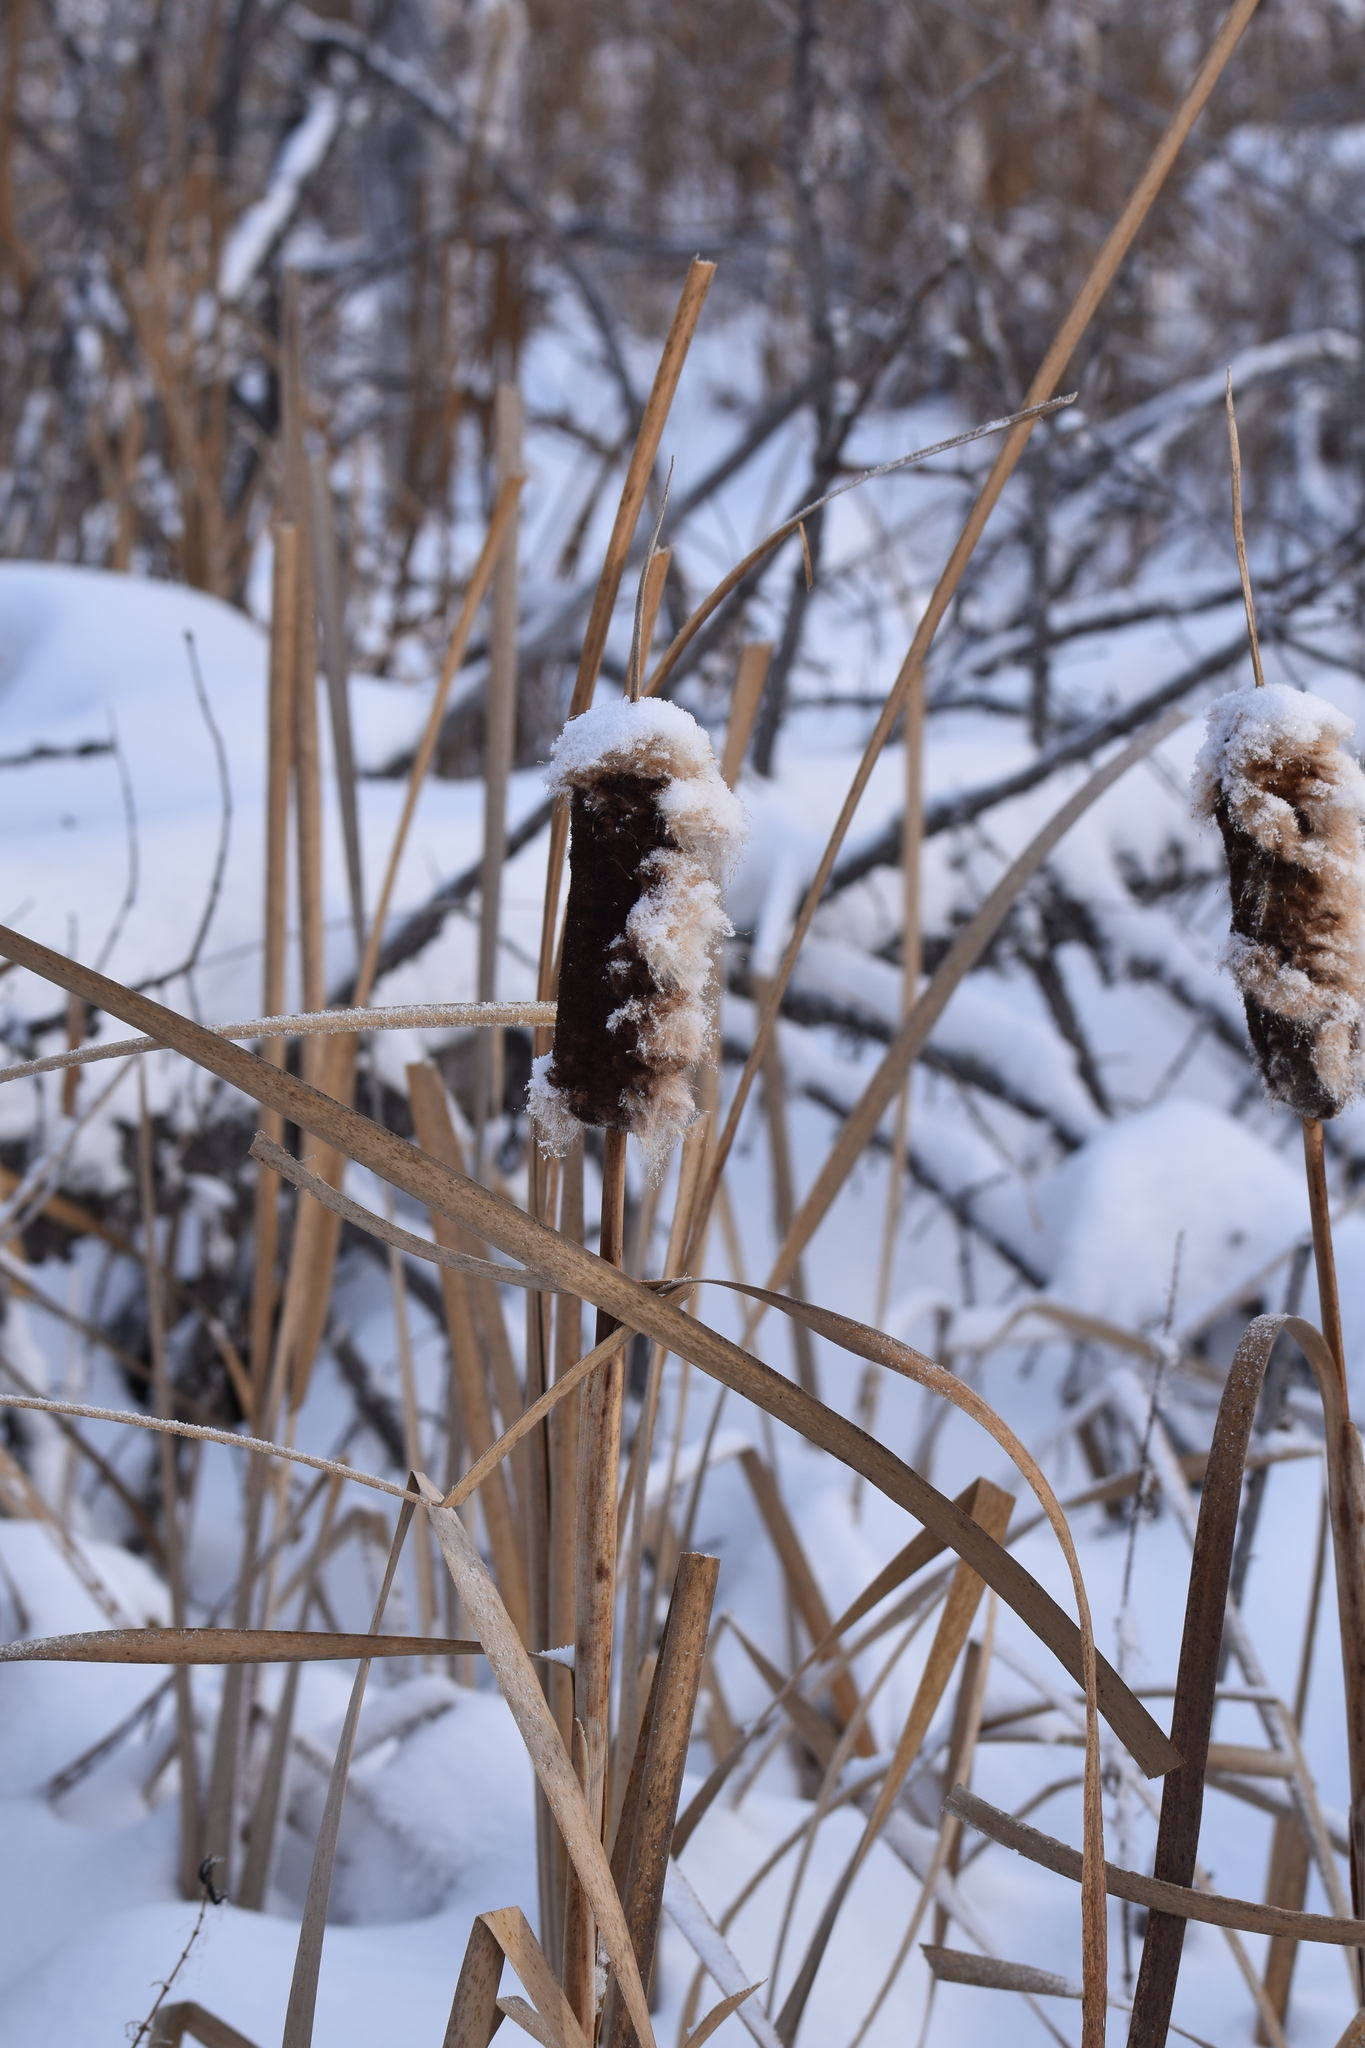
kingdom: Plantae
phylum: Tracheophyta
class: Liliopsida
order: Poales
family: Typhaceae
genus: Typha
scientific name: Typha latifolia
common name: Broadleaf cattail
